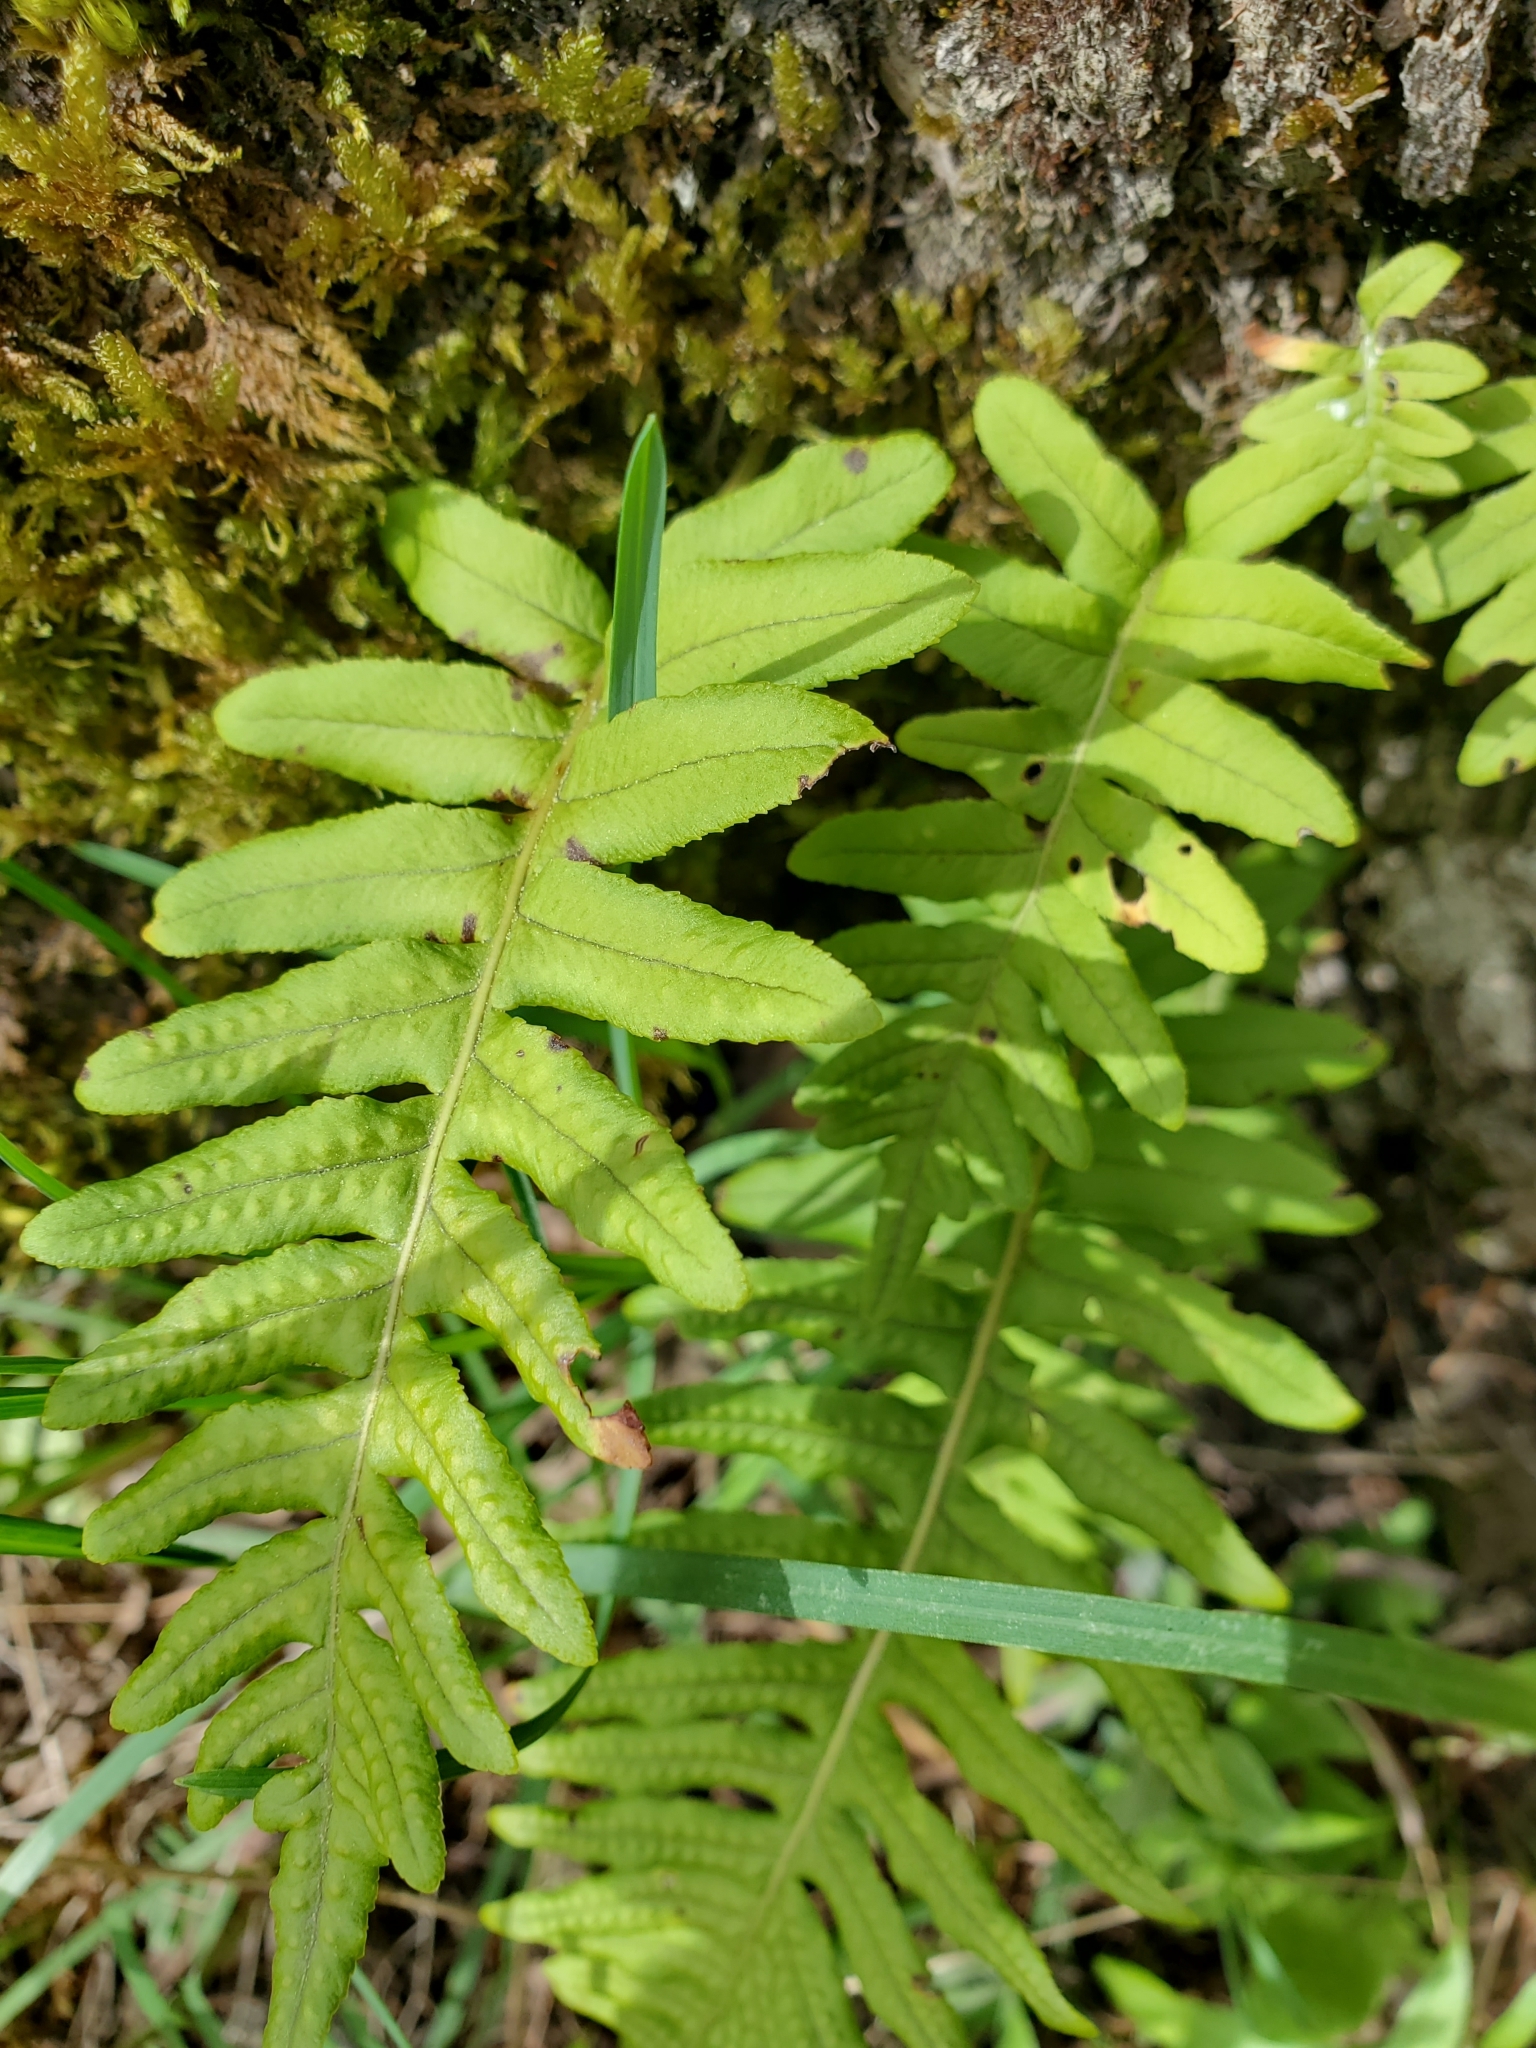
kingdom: Plantae
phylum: Tracheophyta
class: Polypodiopsida
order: Polypodiales
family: Polypodiaceae
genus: Polypodium
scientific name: Polypodium glycyrrhiza
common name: Licorice fern
